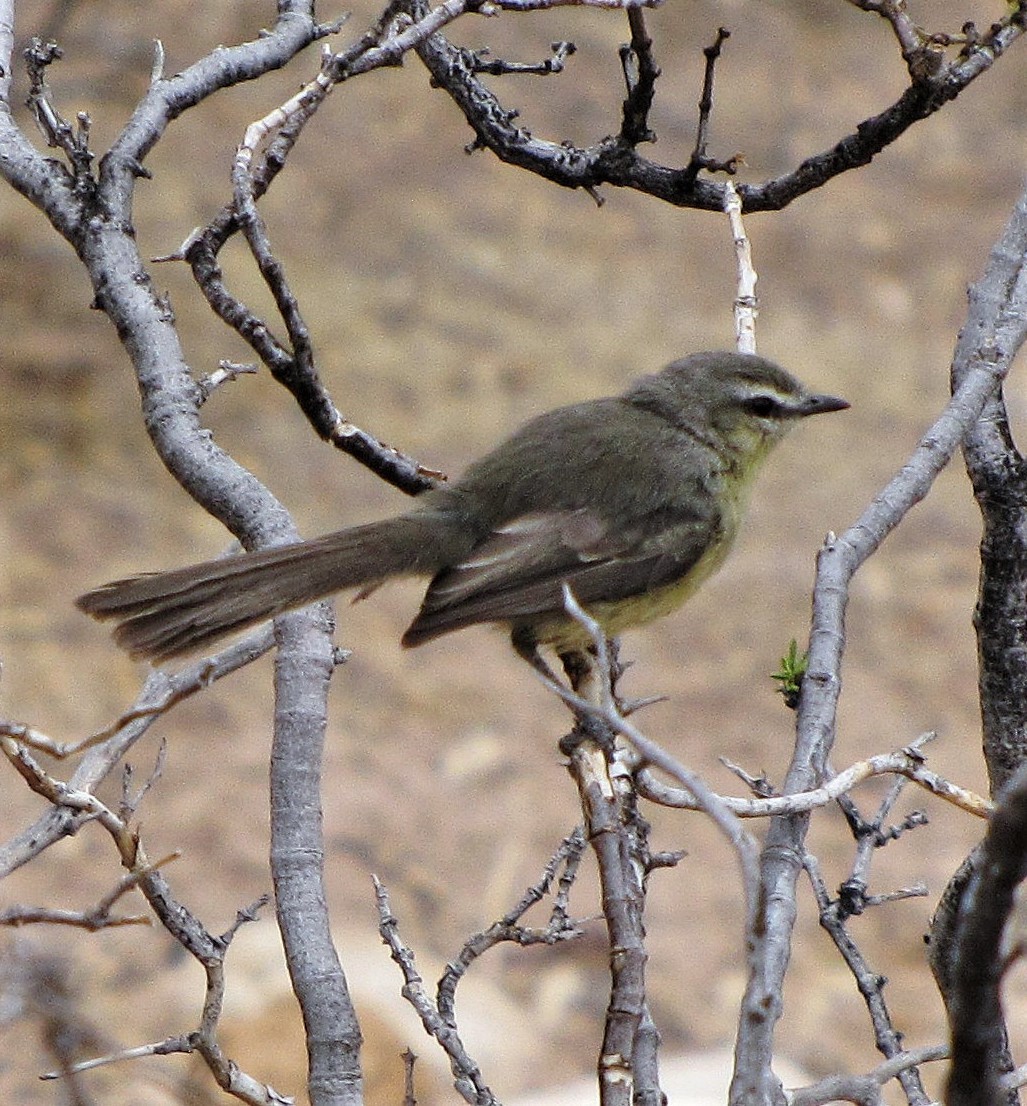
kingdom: Animalia
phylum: Chordata
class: Aves
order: Passeriformes
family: Tyrannidae
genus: Stigmatura
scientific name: Stigmatura budytoides
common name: Greater wagtail-tyrant
